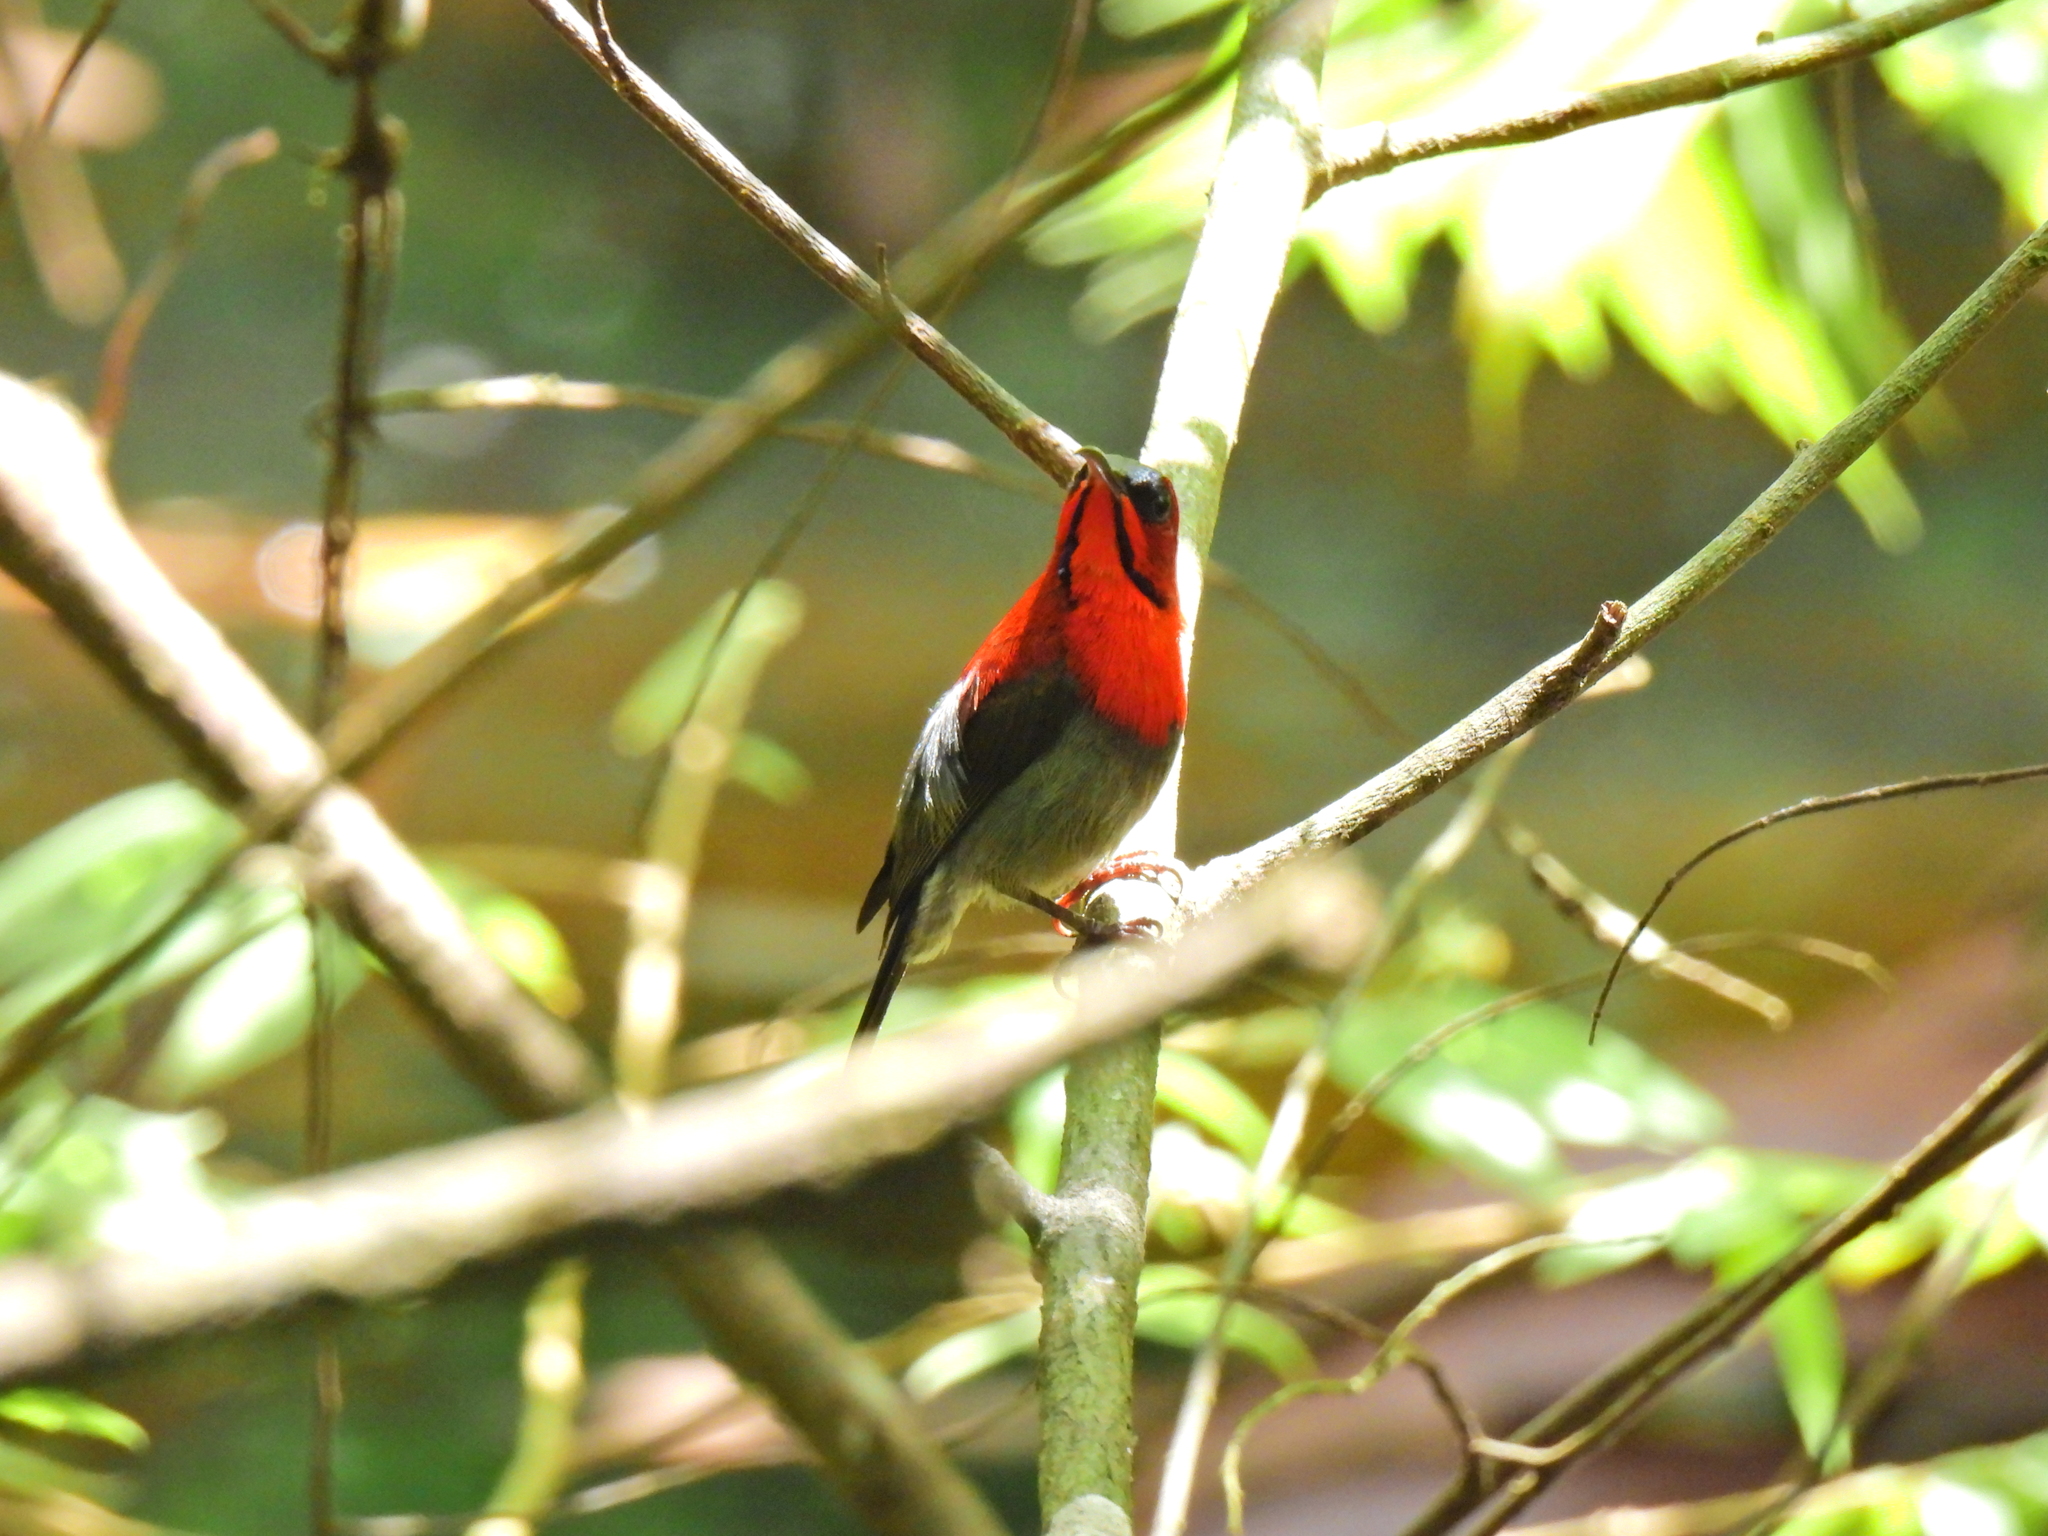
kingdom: Animalia
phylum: Chordata
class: Aves
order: Passeriformes
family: Nectariniidae
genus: Aethopyga
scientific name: Aethopyga siparaja
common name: Crimson sunbird
